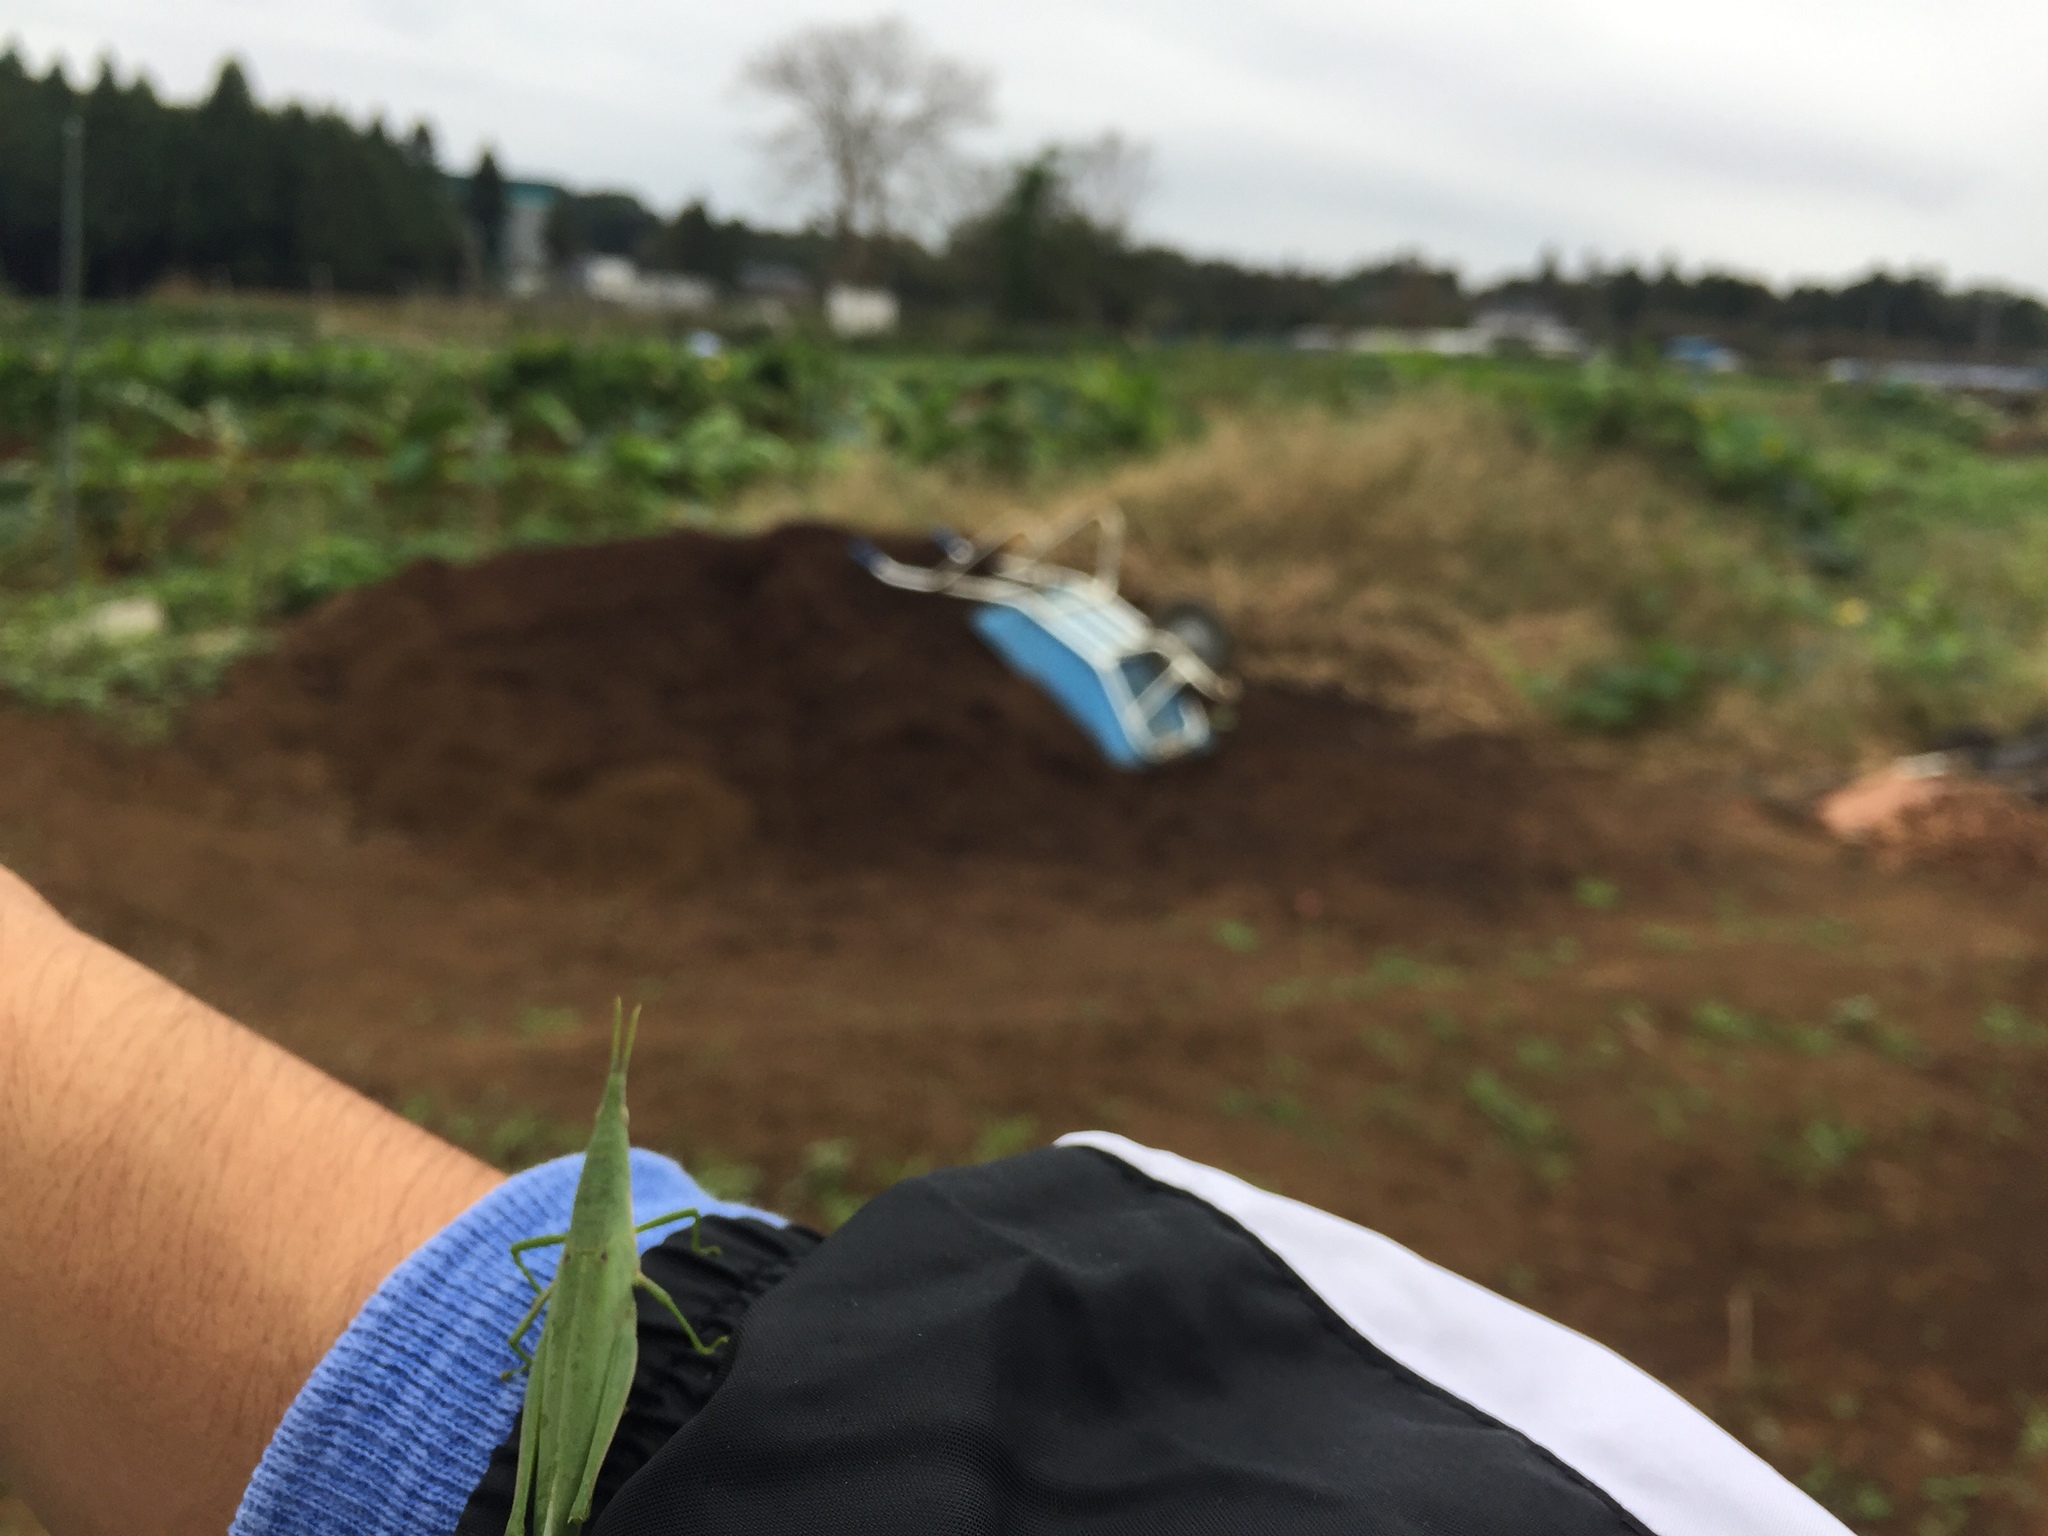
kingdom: Animalia
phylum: Arthropoda
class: Insecta
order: Orthoptera
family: Pyrgomorphidae
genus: Atractomorpha
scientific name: Atractomorpha lata
